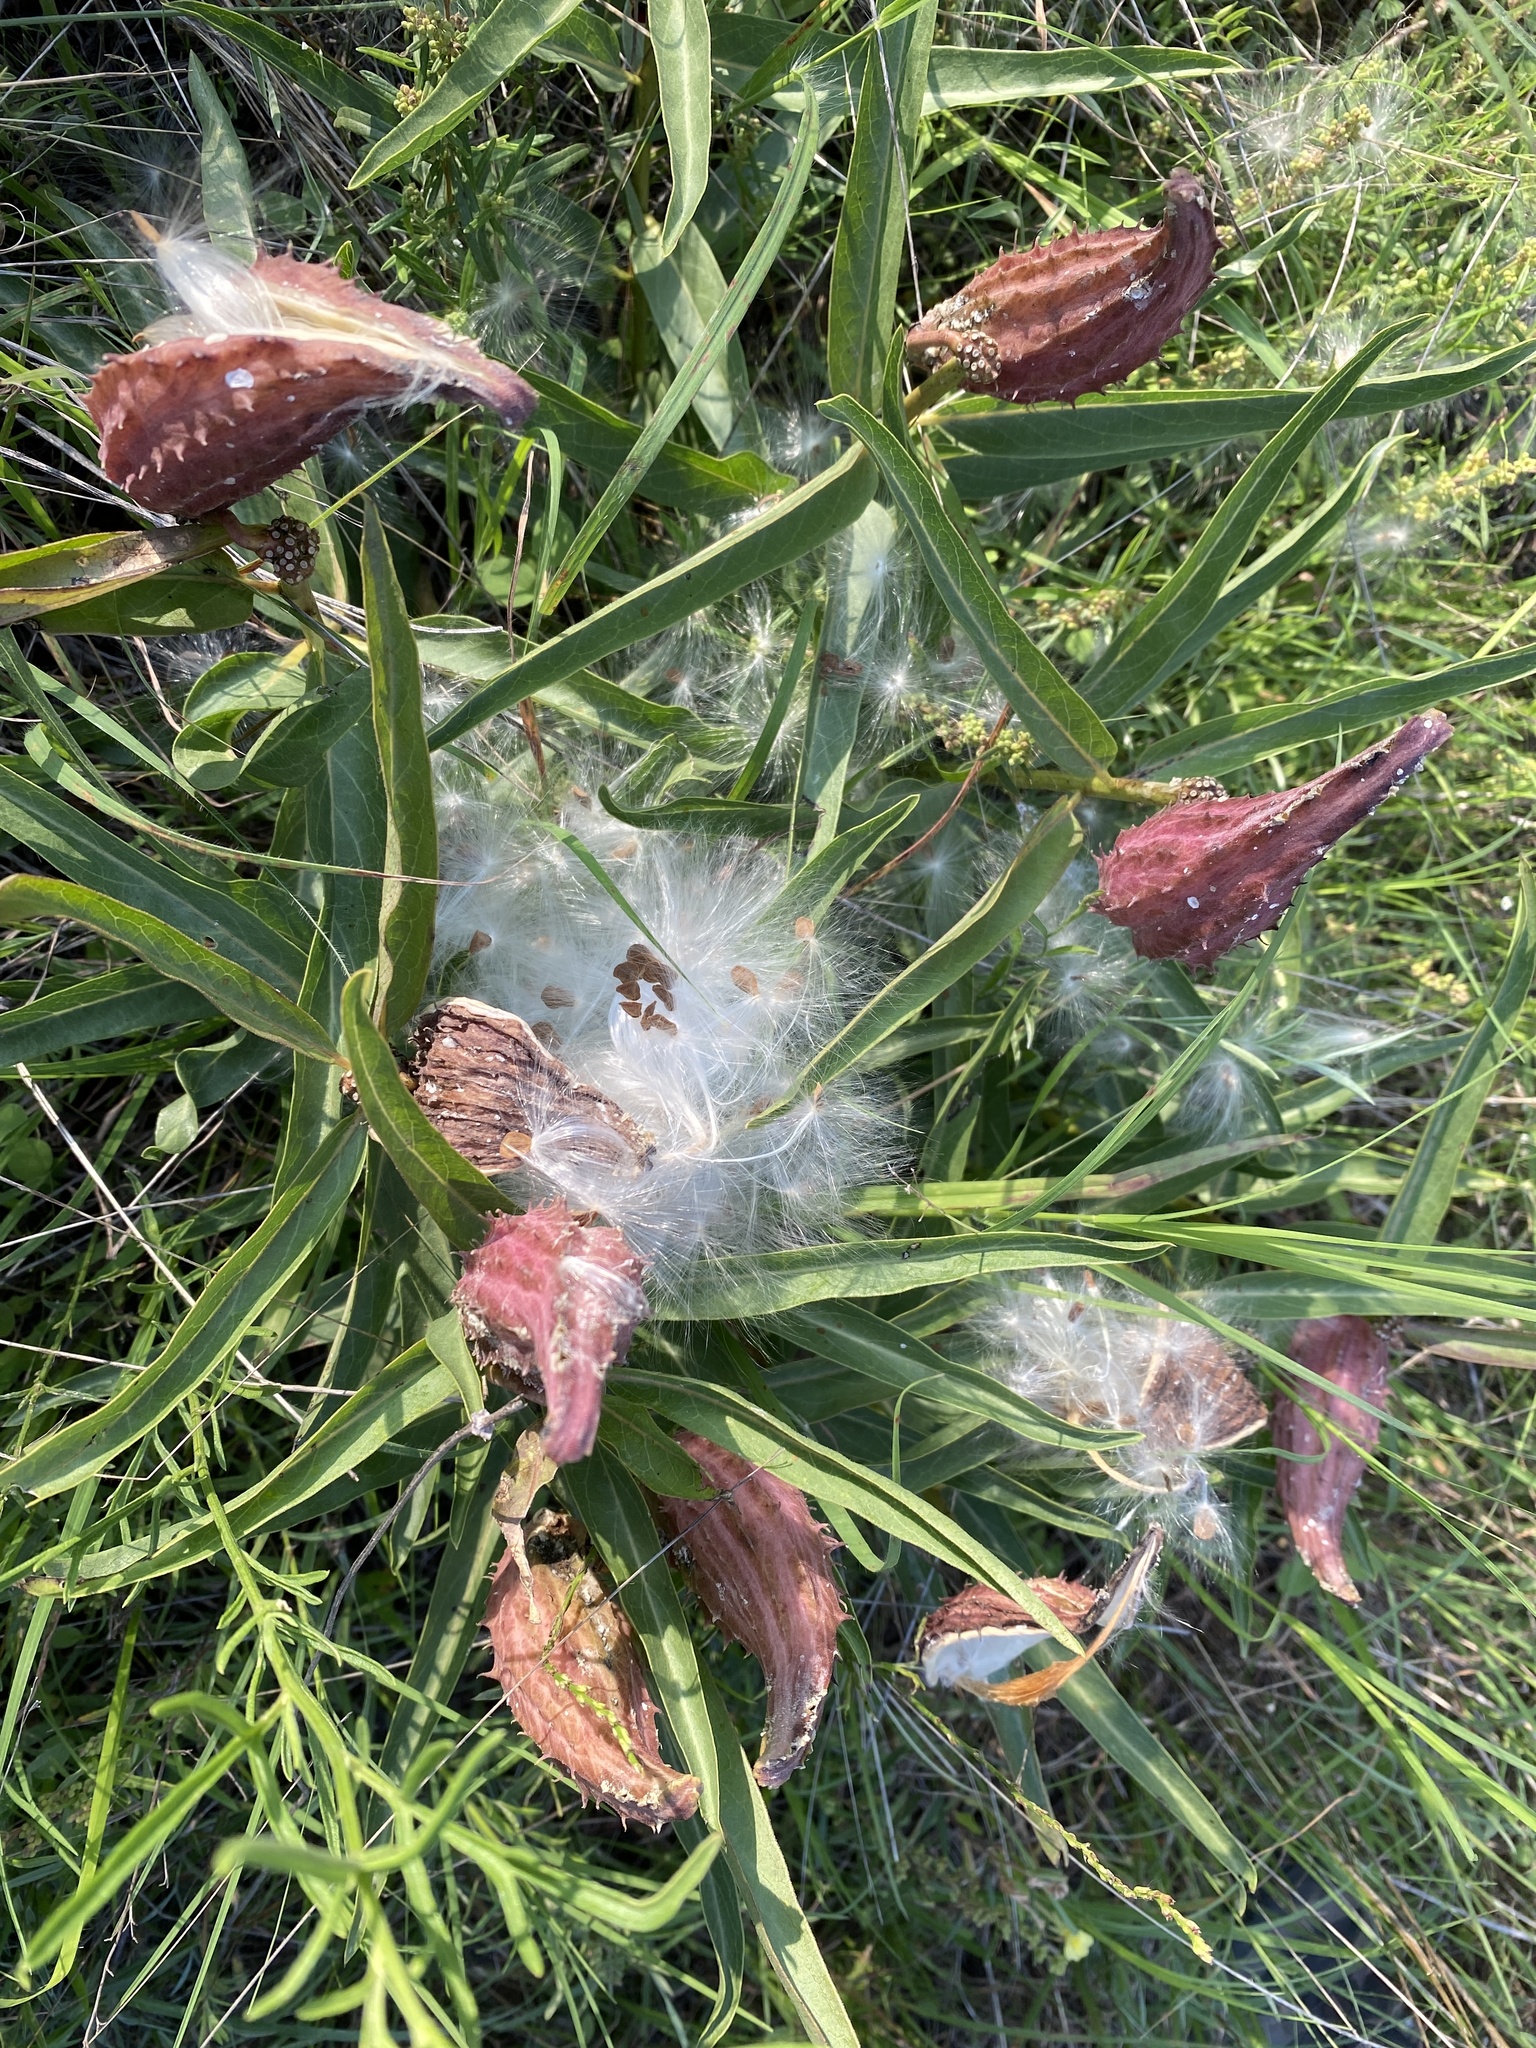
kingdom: Plantae
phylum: Tracheophyta
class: Magnoliopsida
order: Gentianales
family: Apocynaceae
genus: Asclepias
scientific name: Asclepias asperula
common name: Antelope horns
